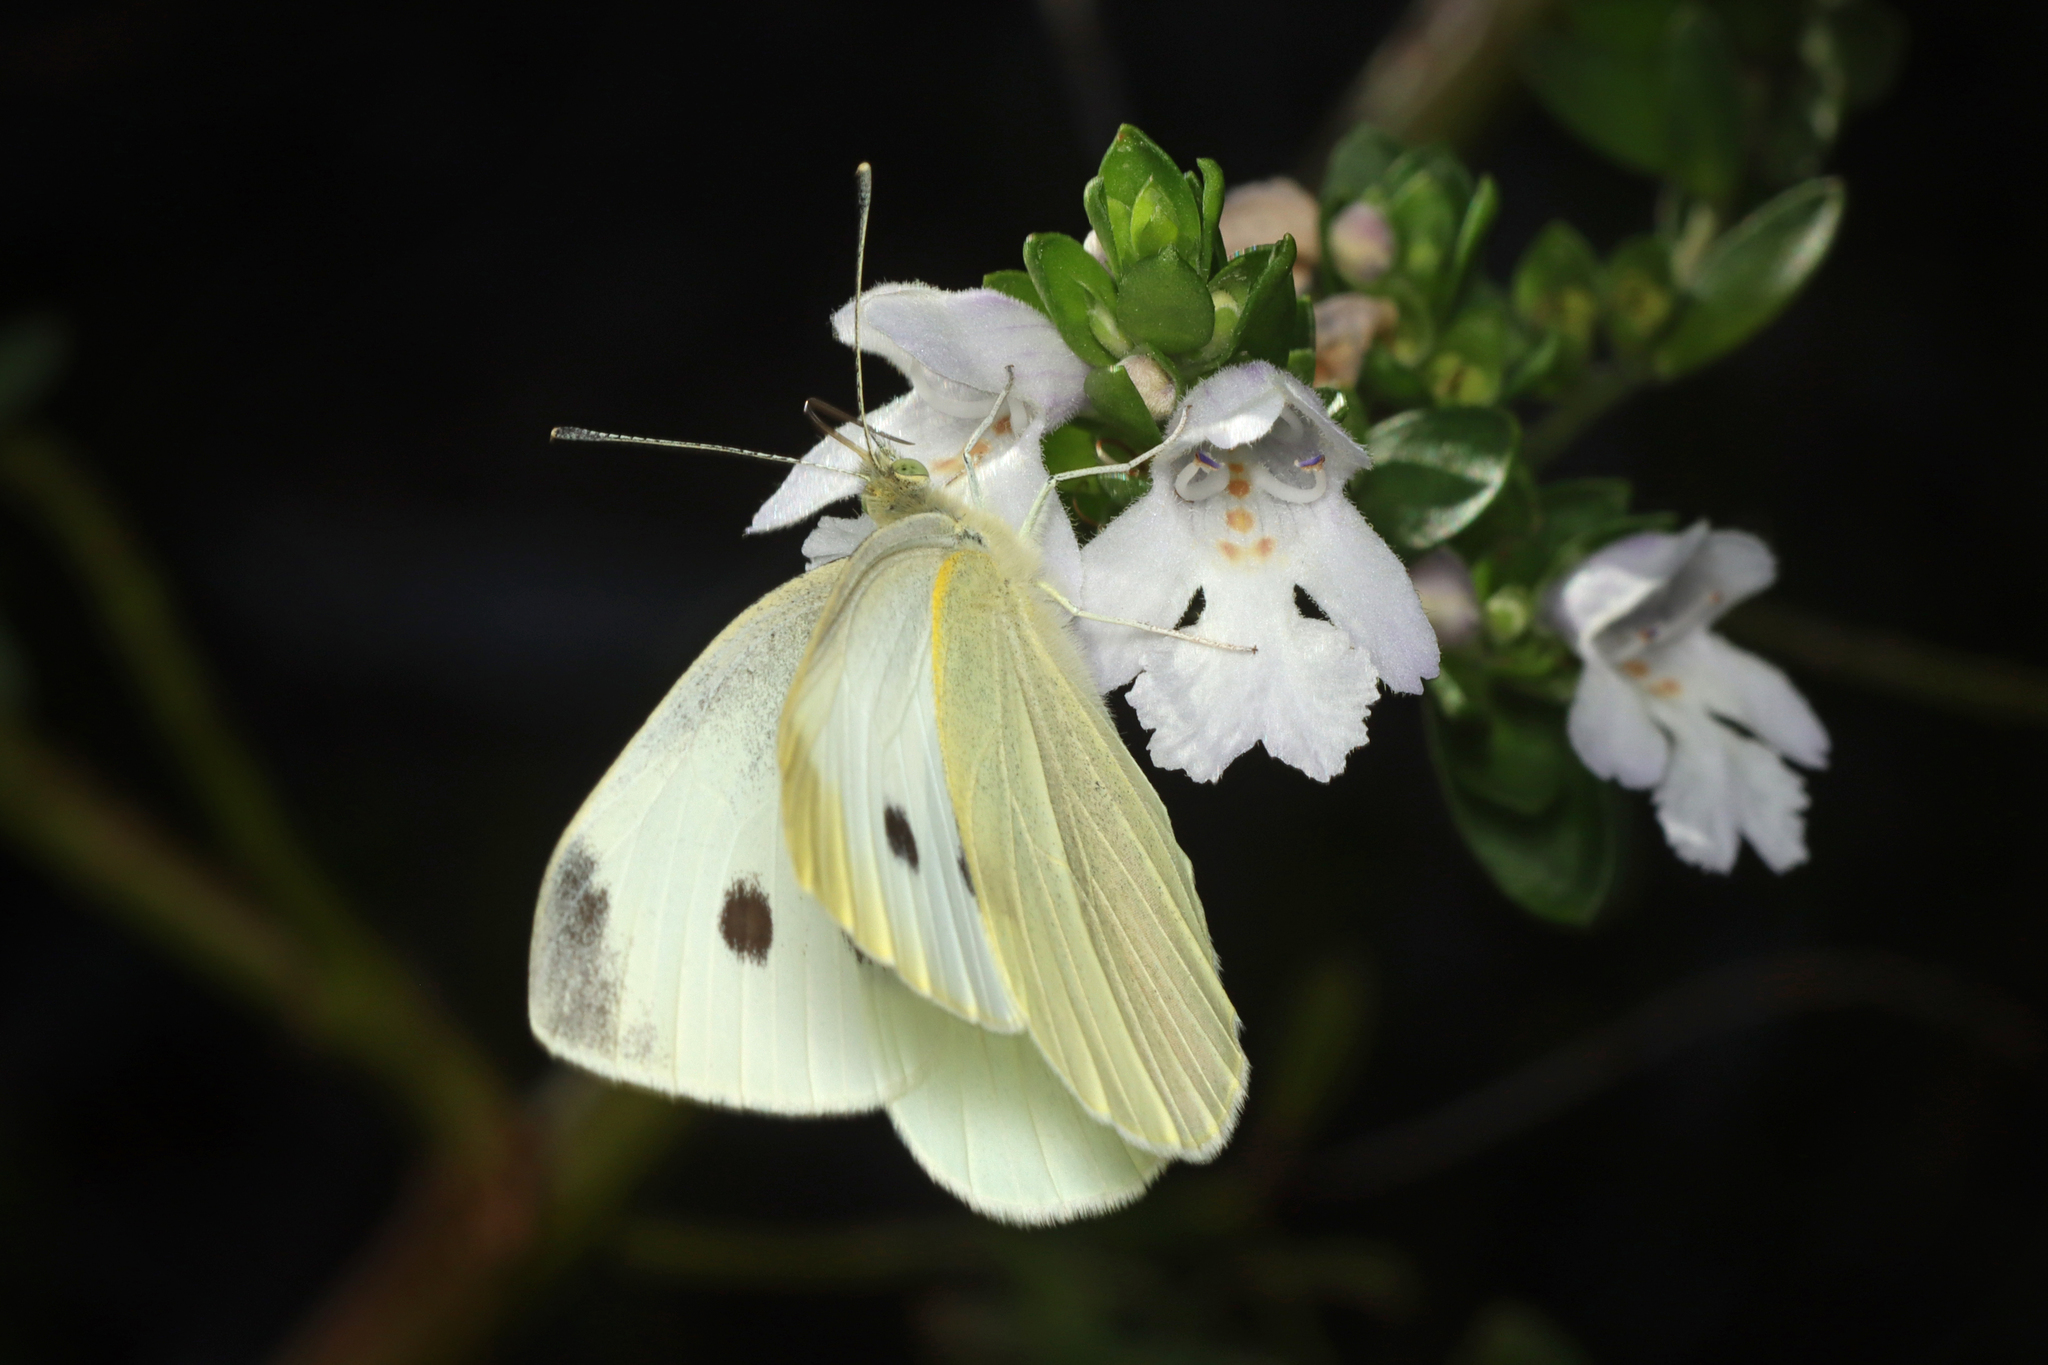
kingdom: Animalia
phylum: Arthropoda
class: Insecta
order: Lepidoptera
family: Pieridae
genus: Pieris
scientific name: Pieris rapae
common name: Small white
